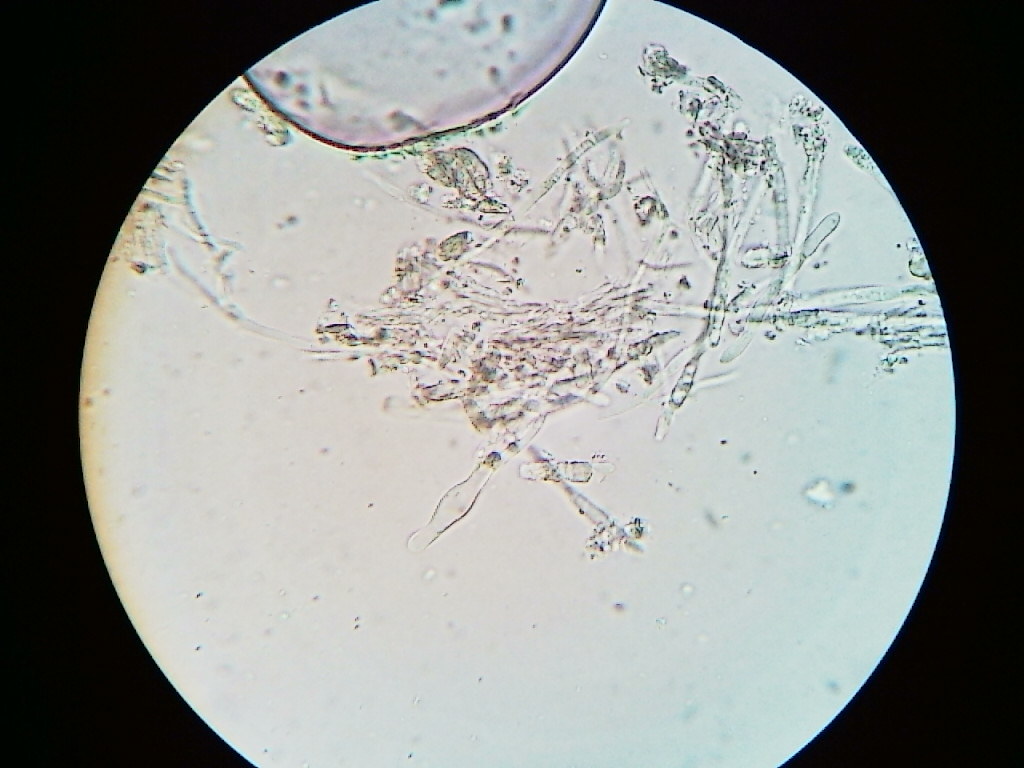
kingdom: Fungi
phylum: Ascomycota
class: Leotiomycetes
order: Helotiales
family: Lachnaceae
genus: Capitotricha
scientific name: Capitotricha bicolor
